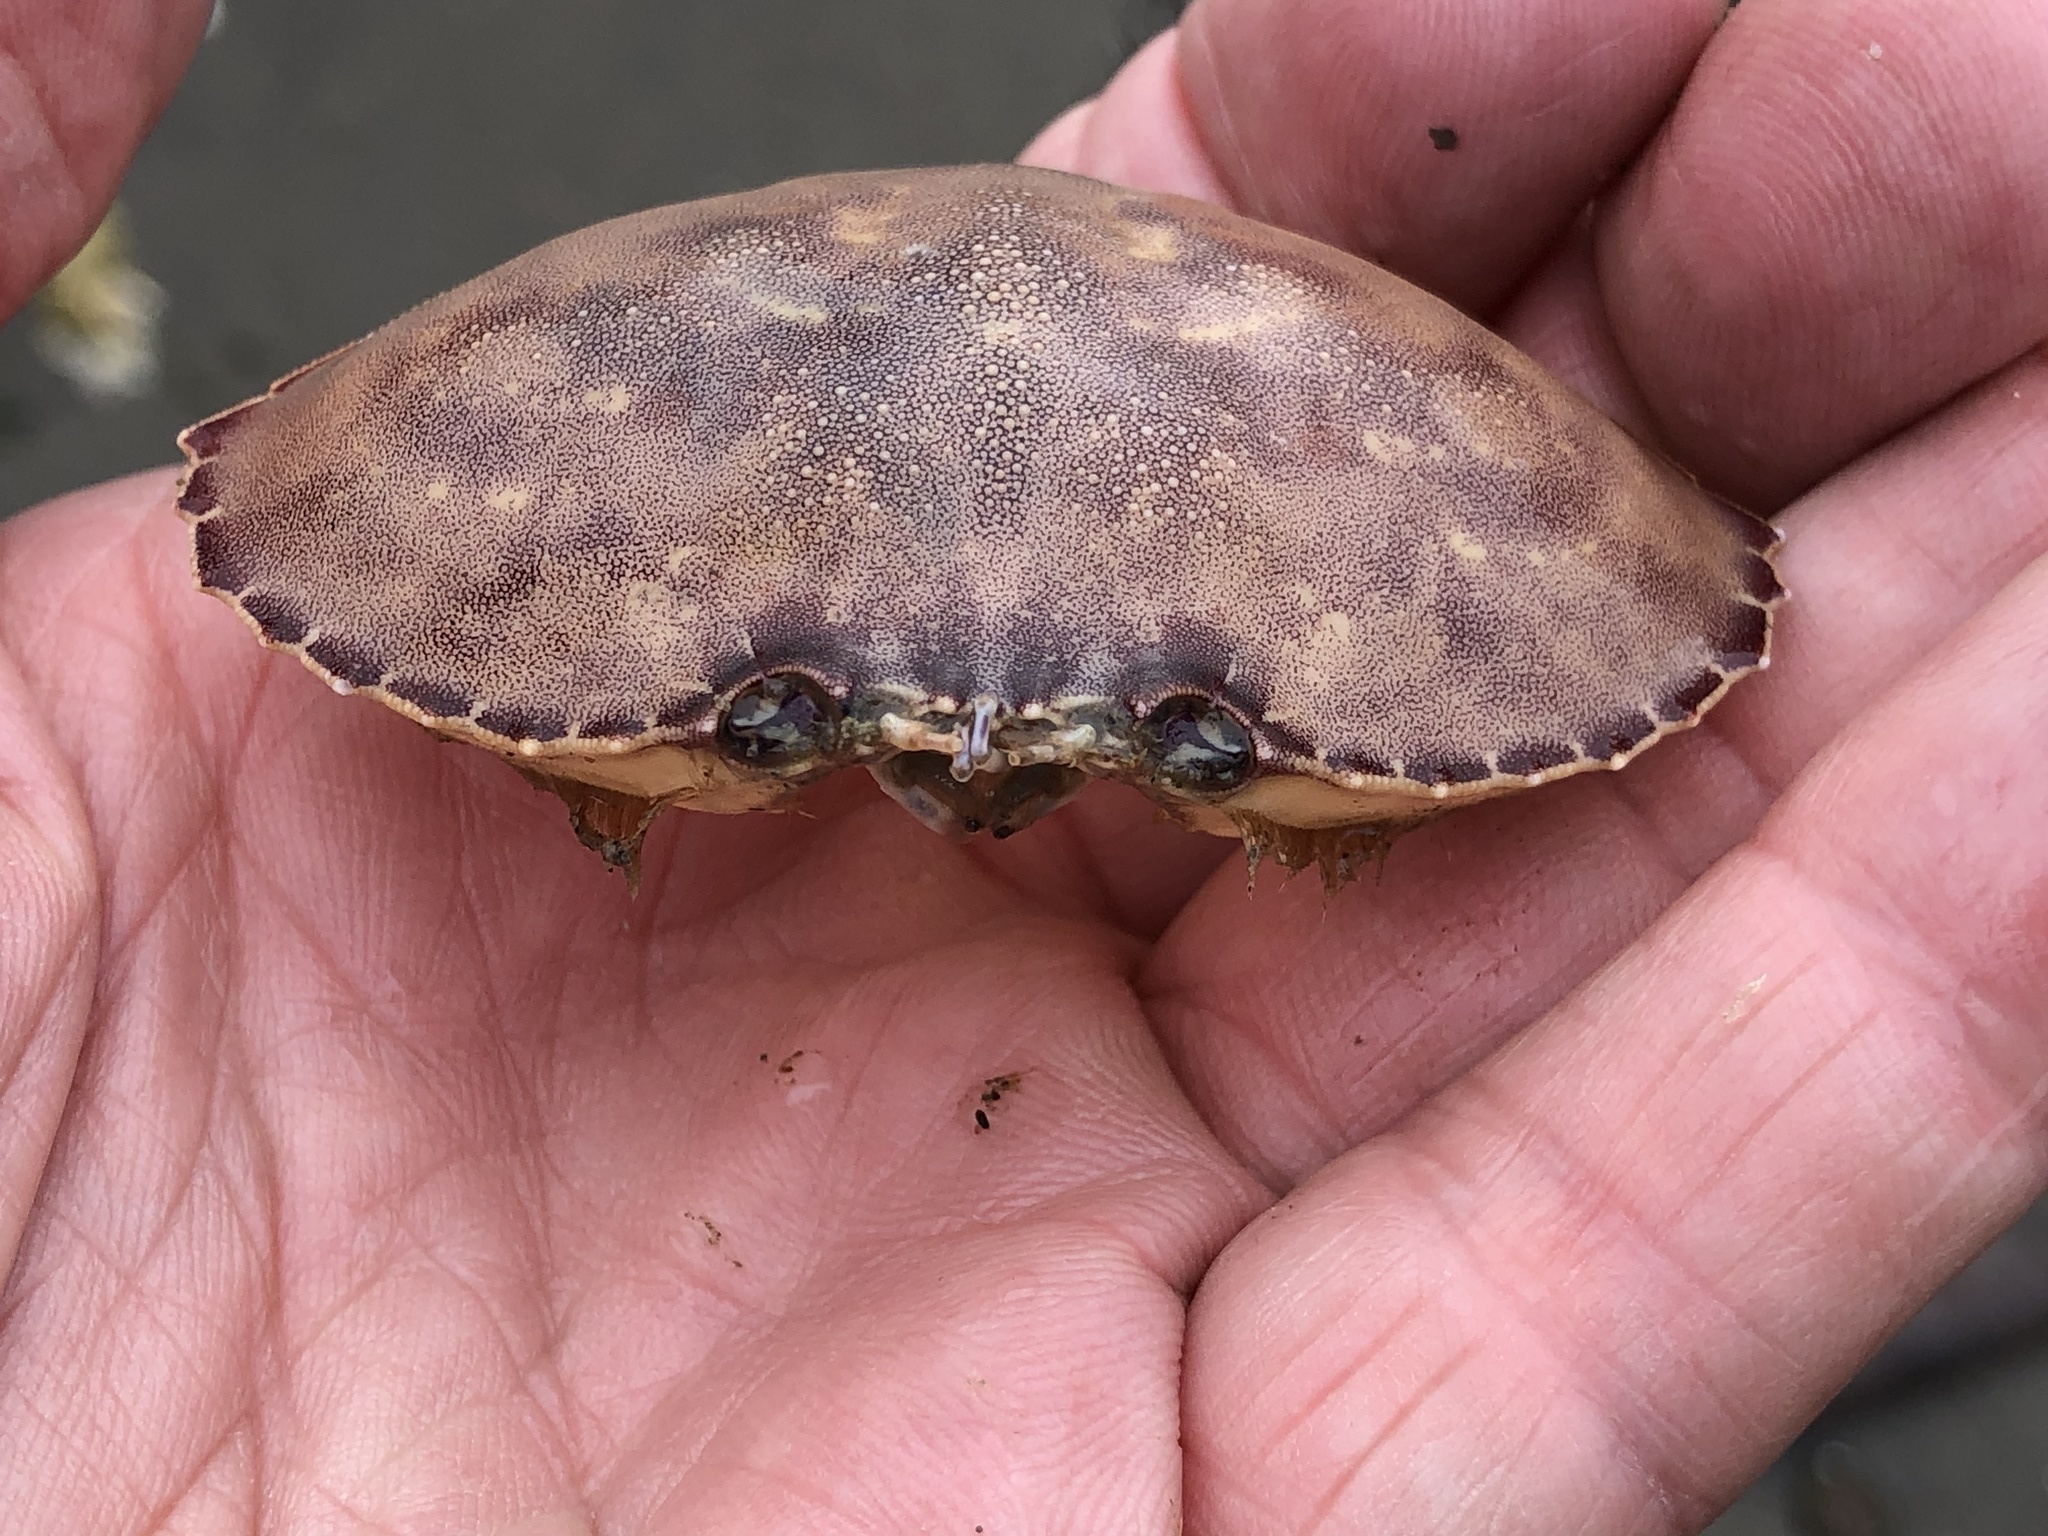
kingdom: Animalia
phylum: Arthropoda
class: Malacostraca
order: Decapoda
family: Cancridae
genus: Metacarcinus
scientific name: Metacarcinus gracilis
